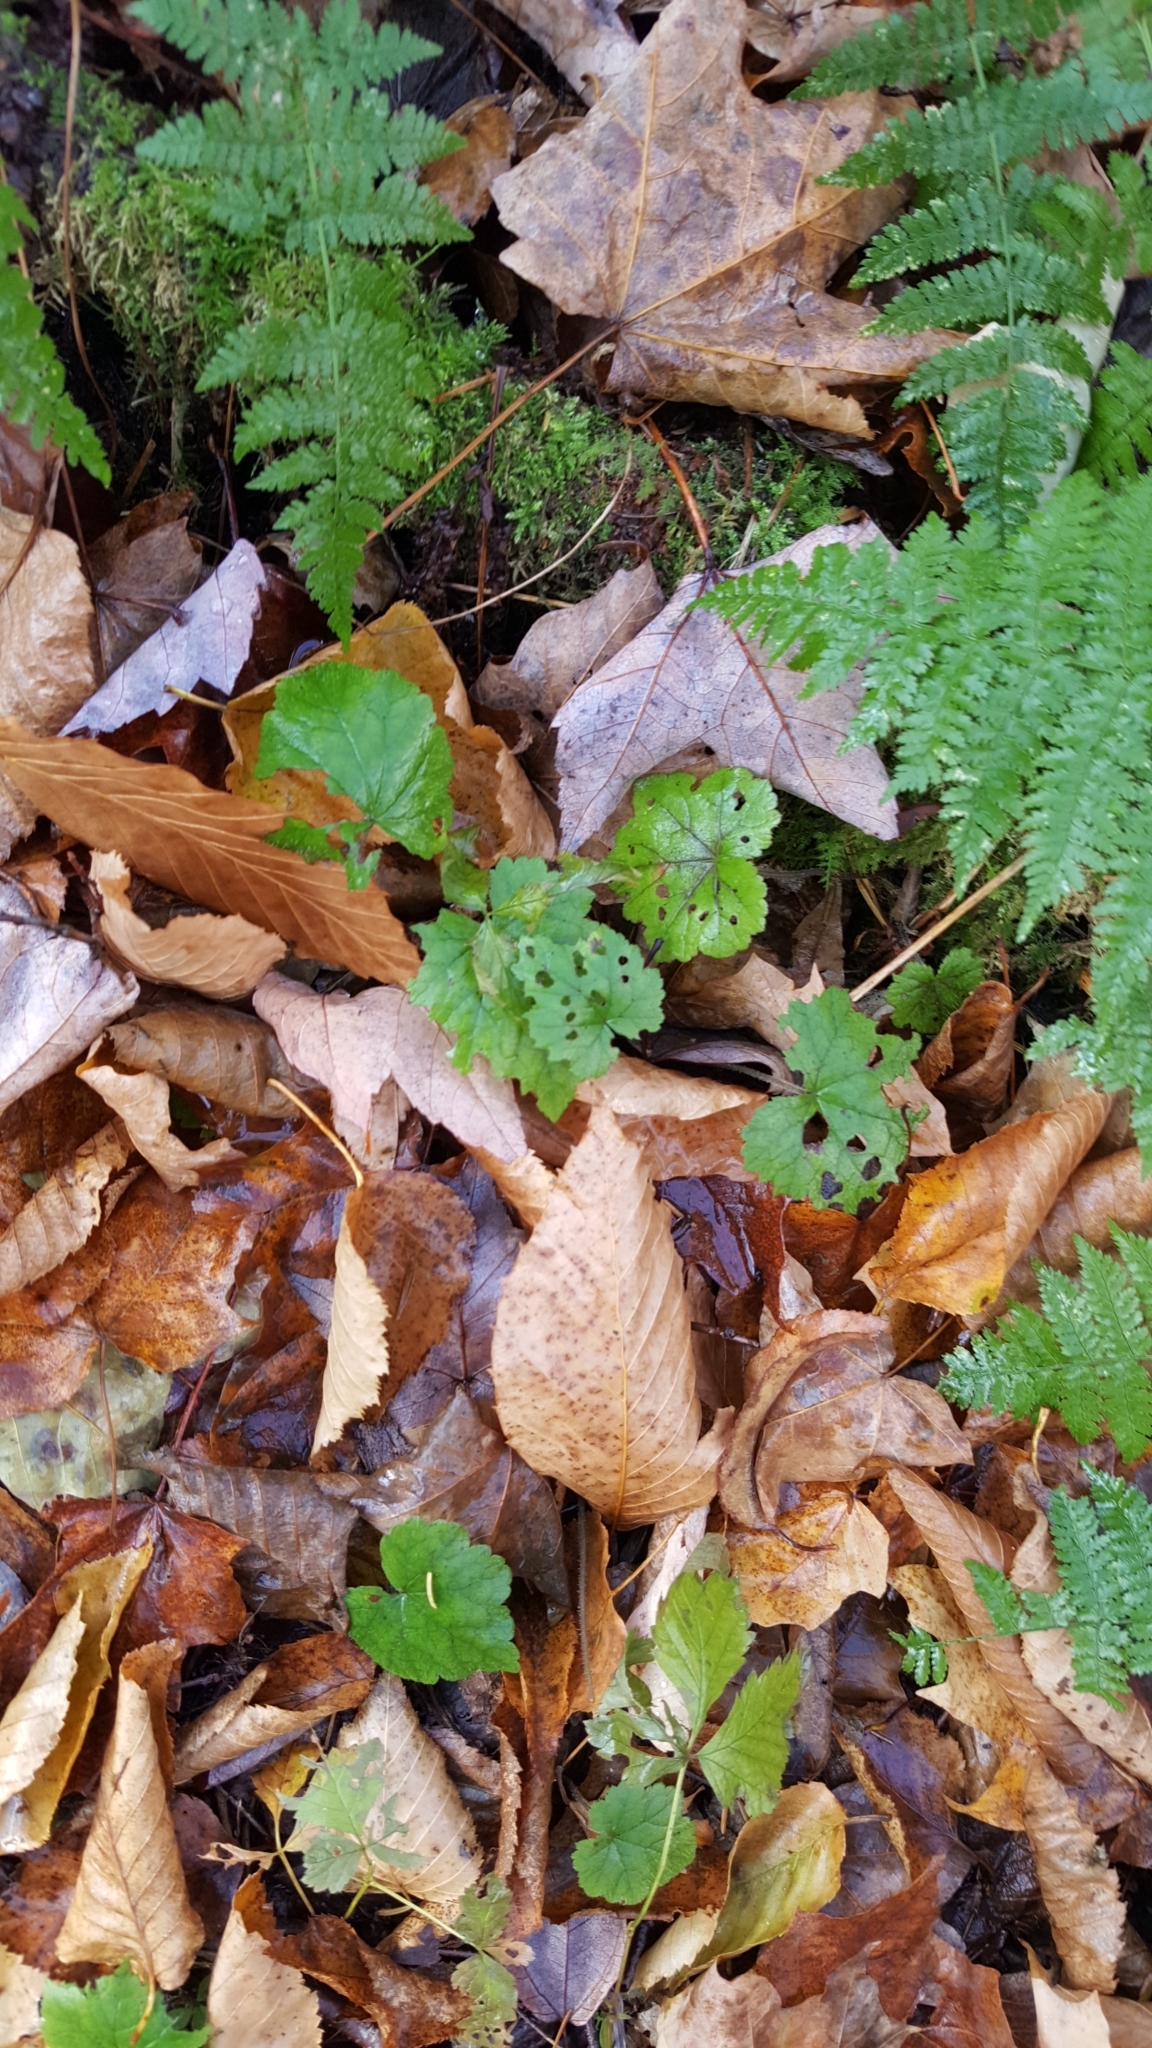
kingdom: Plantae
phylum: Tracheophyta
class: Magnoliopsida
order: Saxifragales
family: Saxifragaceae
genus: Tiarella
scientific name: Tiarella stolonifera
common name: Stoloniferous foamflower
